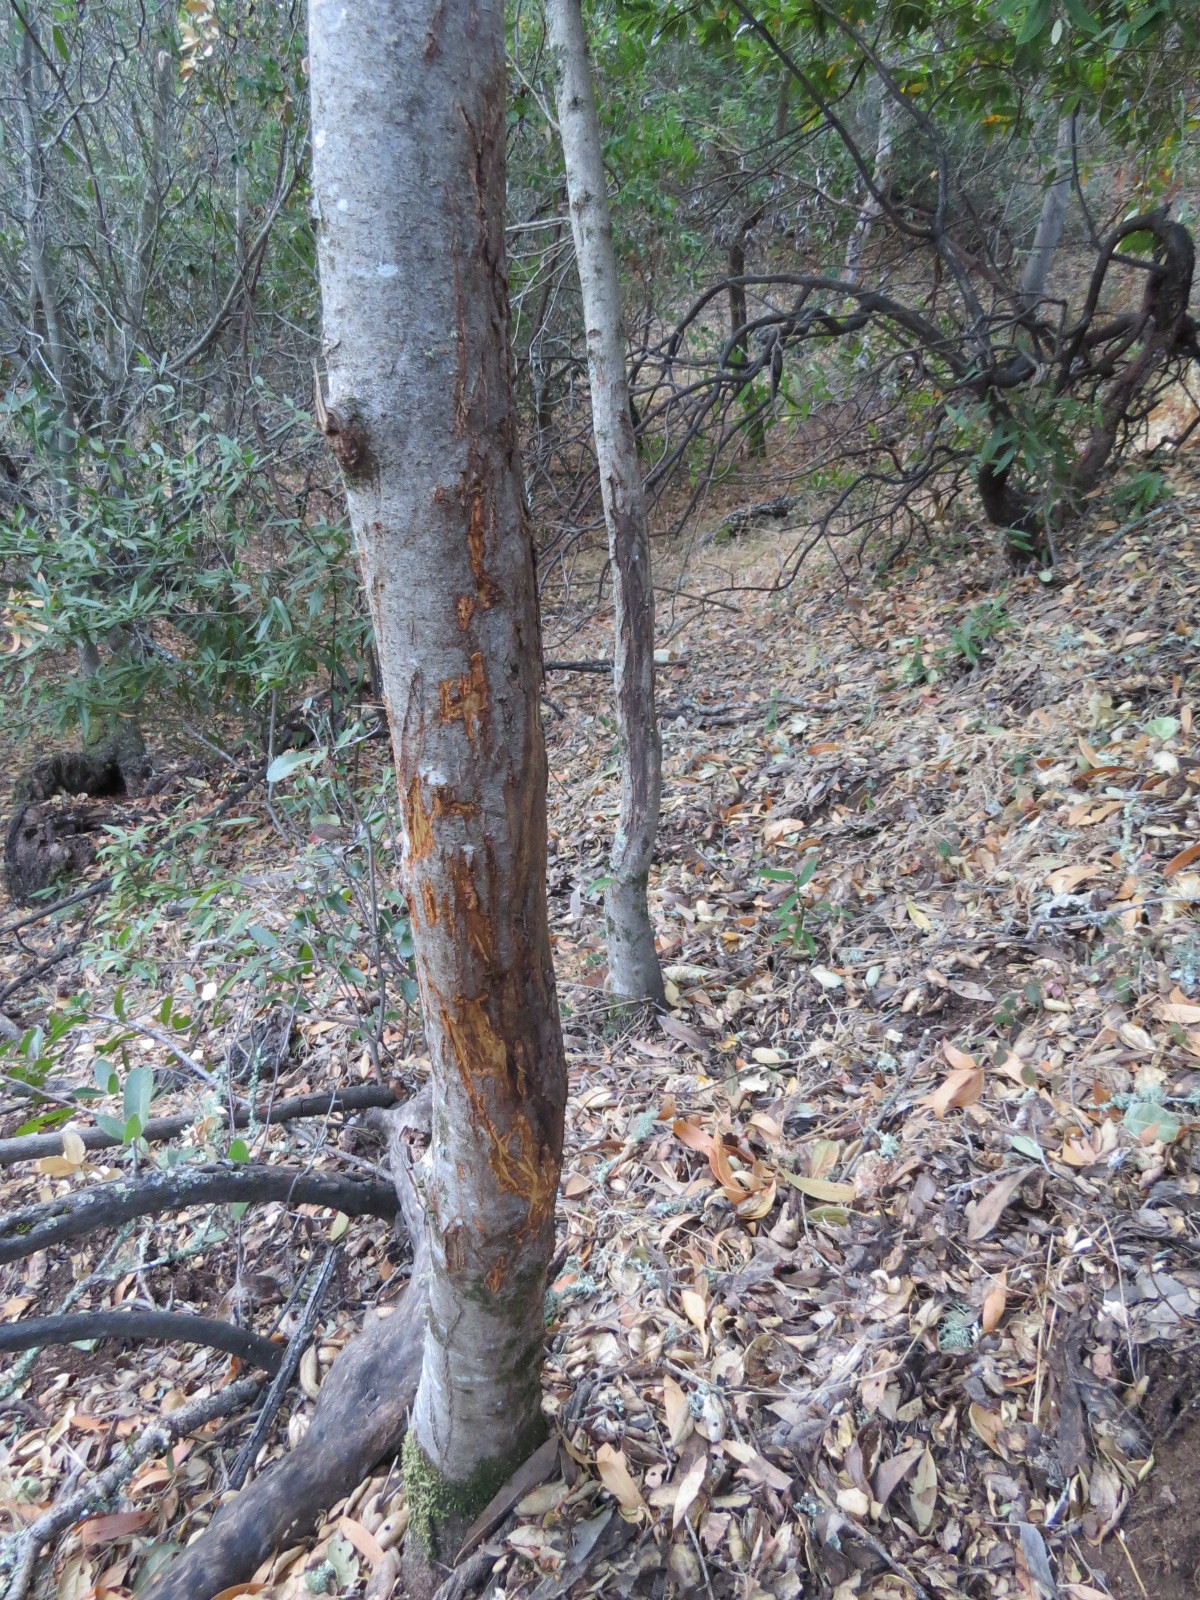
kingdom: Animalia
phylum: Chordata
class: Mammalia
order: Artiodactyla
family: Cervidae
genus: Odocoileus
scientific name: Odocoileus hemionus
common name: Mule deer
